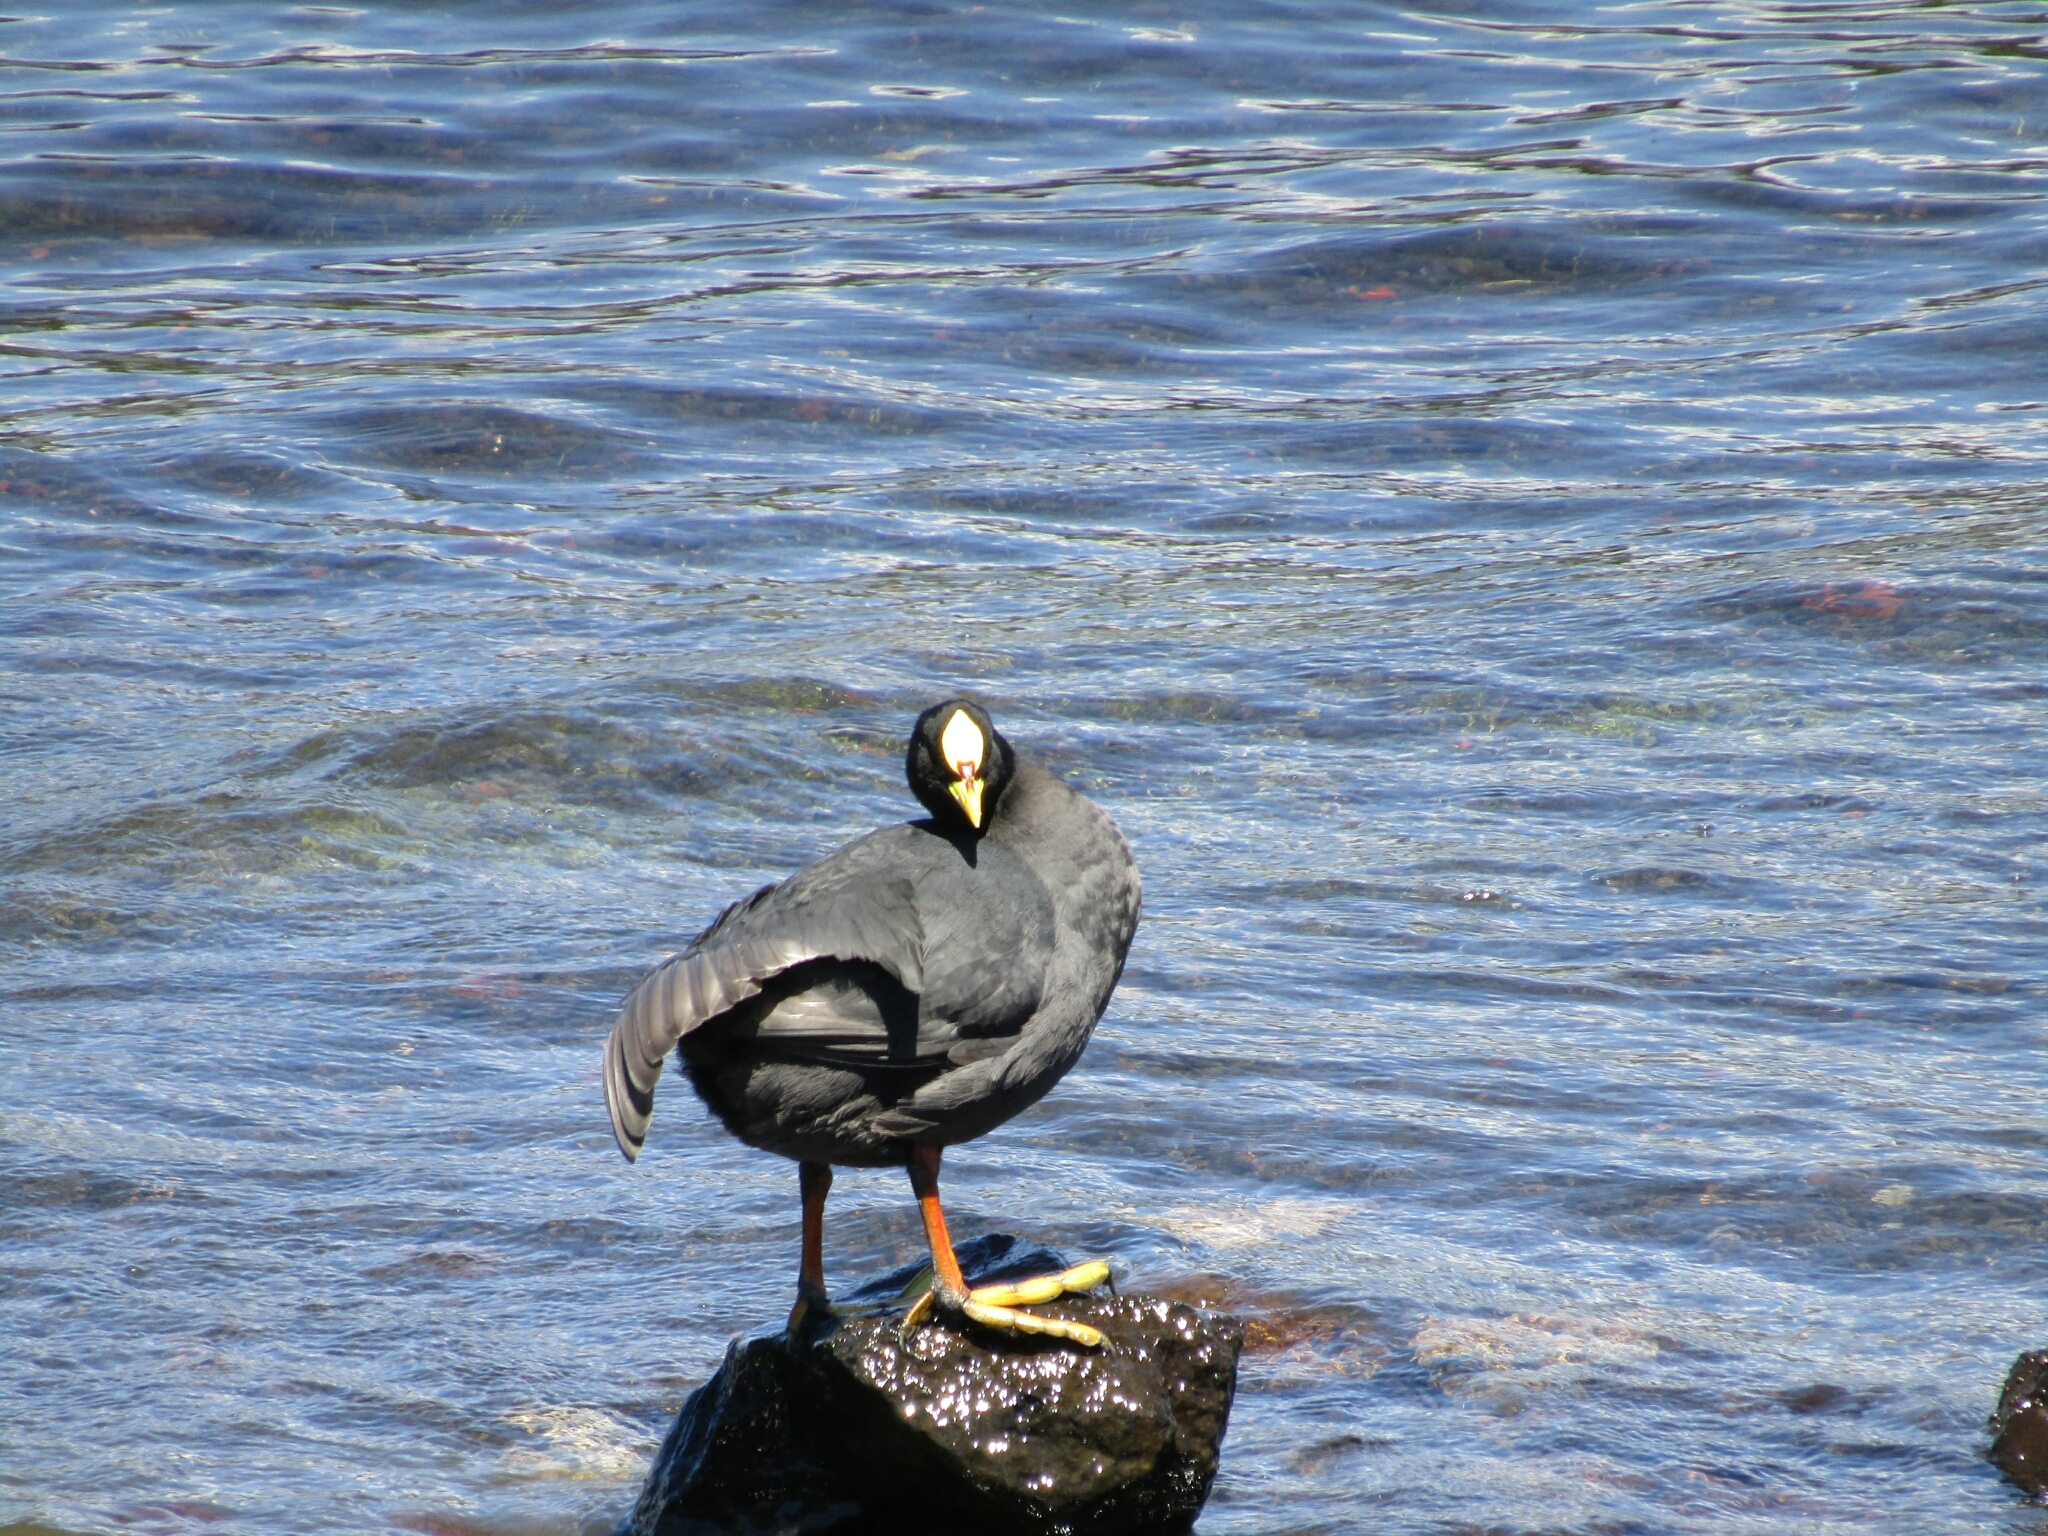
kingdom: Animalia
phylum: Chordata
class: Aves
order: Gruiformes
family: Rallidae
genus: Fulica
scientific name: Fulica armillata
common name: Red-gartered coot
